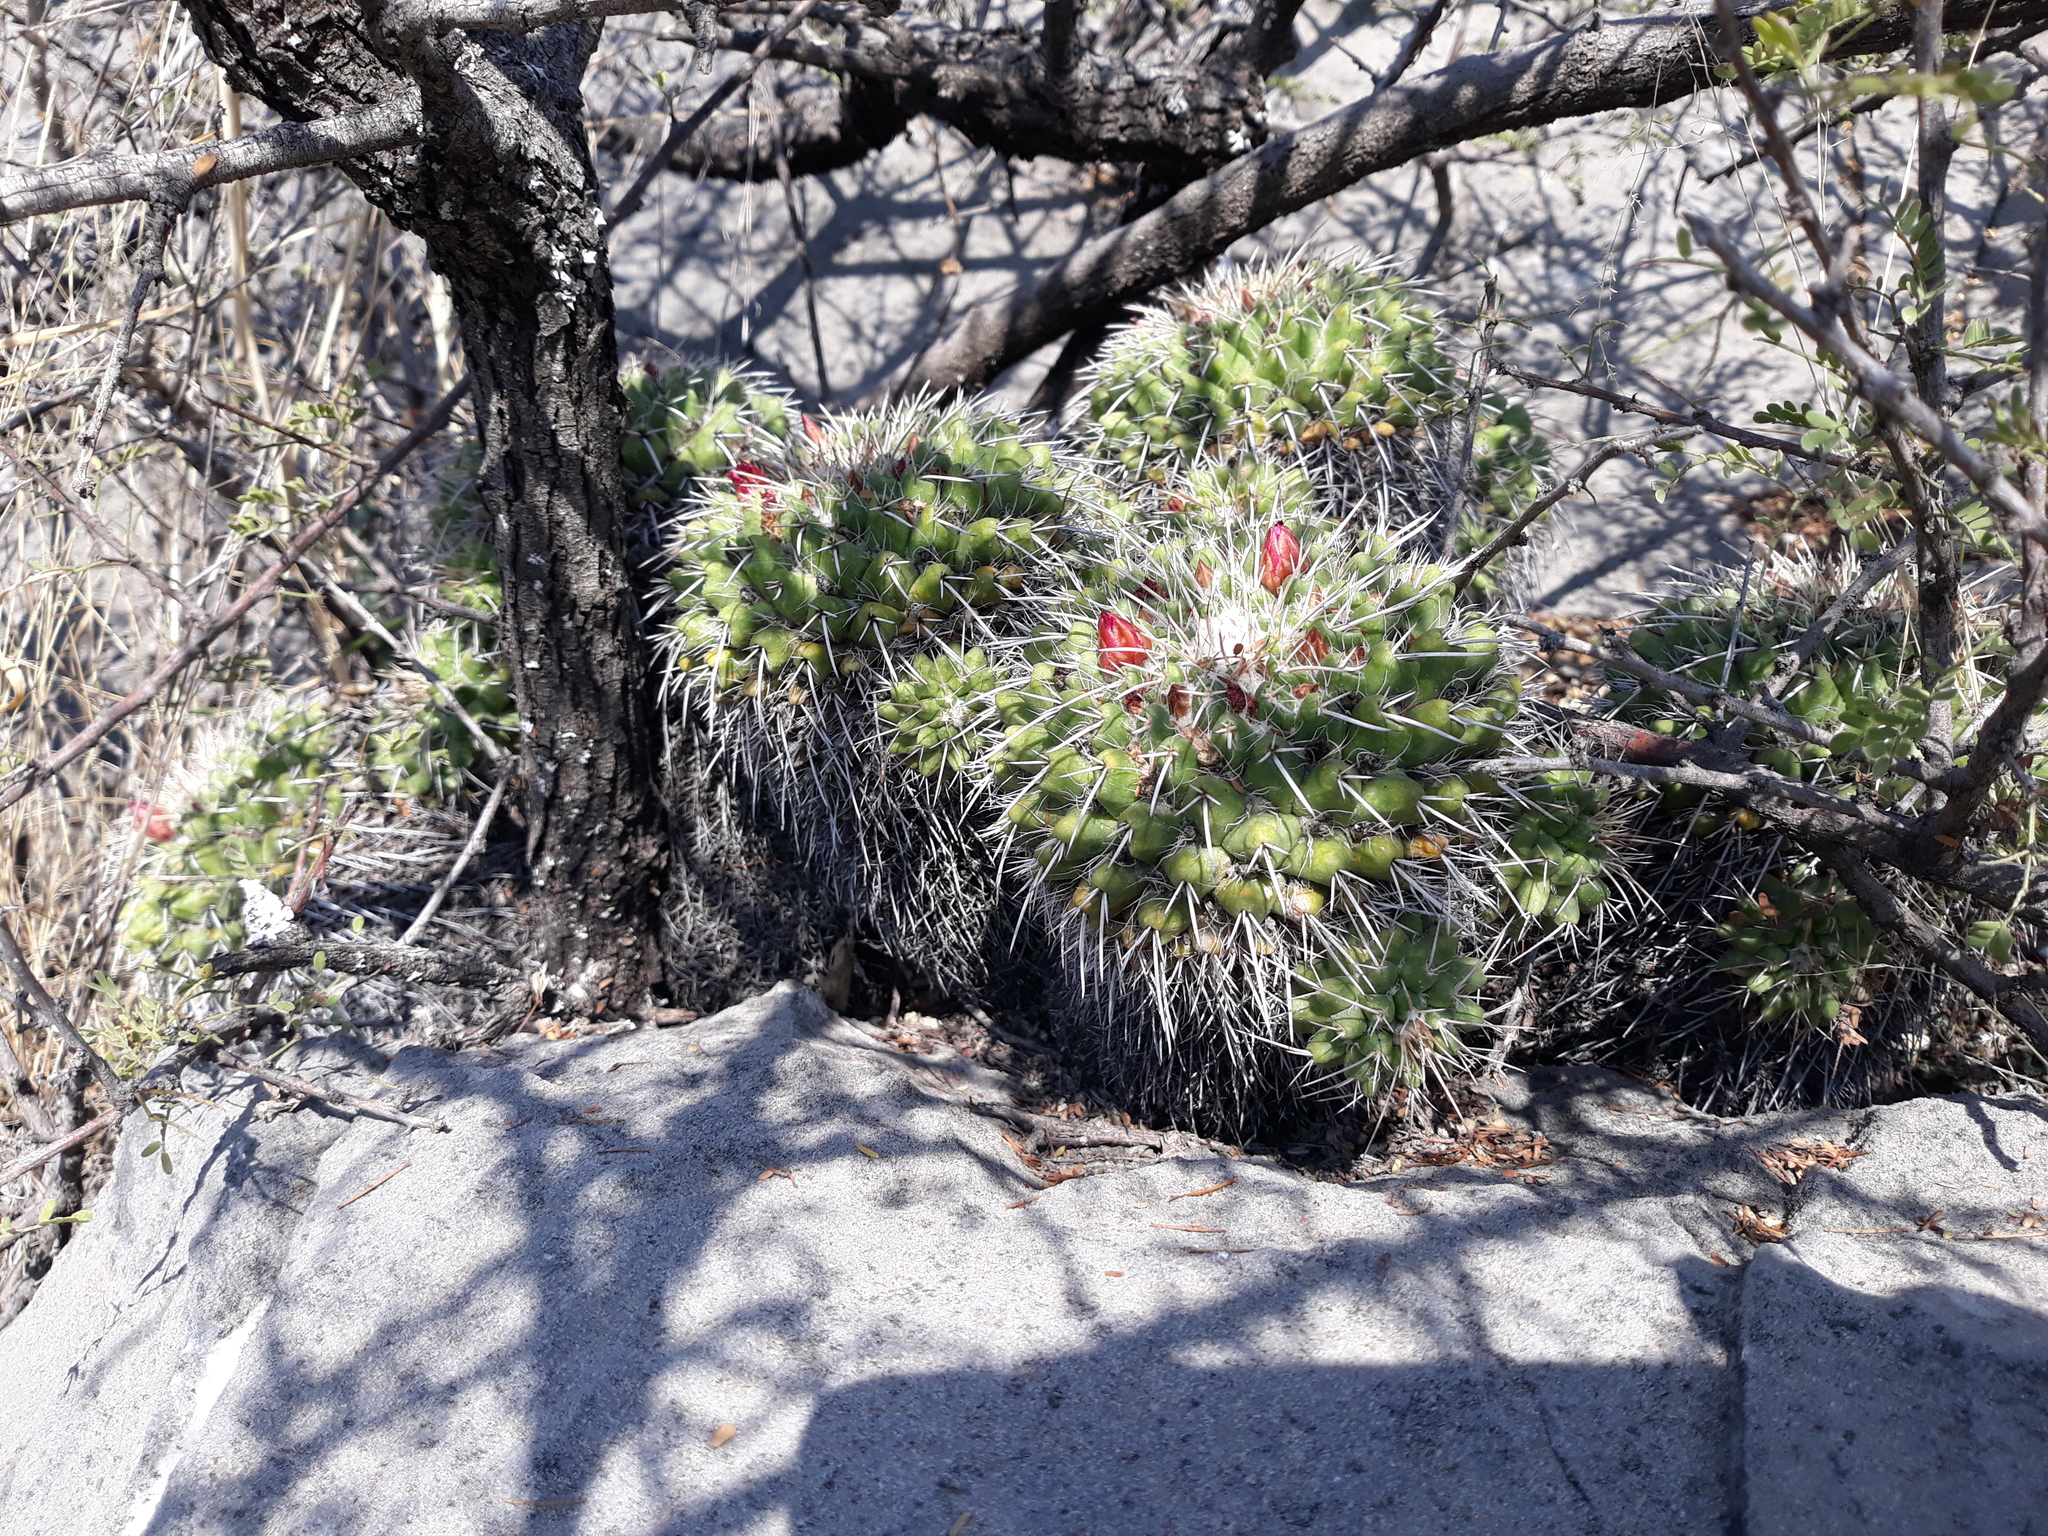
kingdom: Plantae
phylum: Tracheophyta
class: Magnoliopsida
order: Caryophyllales
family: Cactaceae
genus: Mammillaria
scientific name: Mammillaria compressa
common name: Mother-of-hundreds
